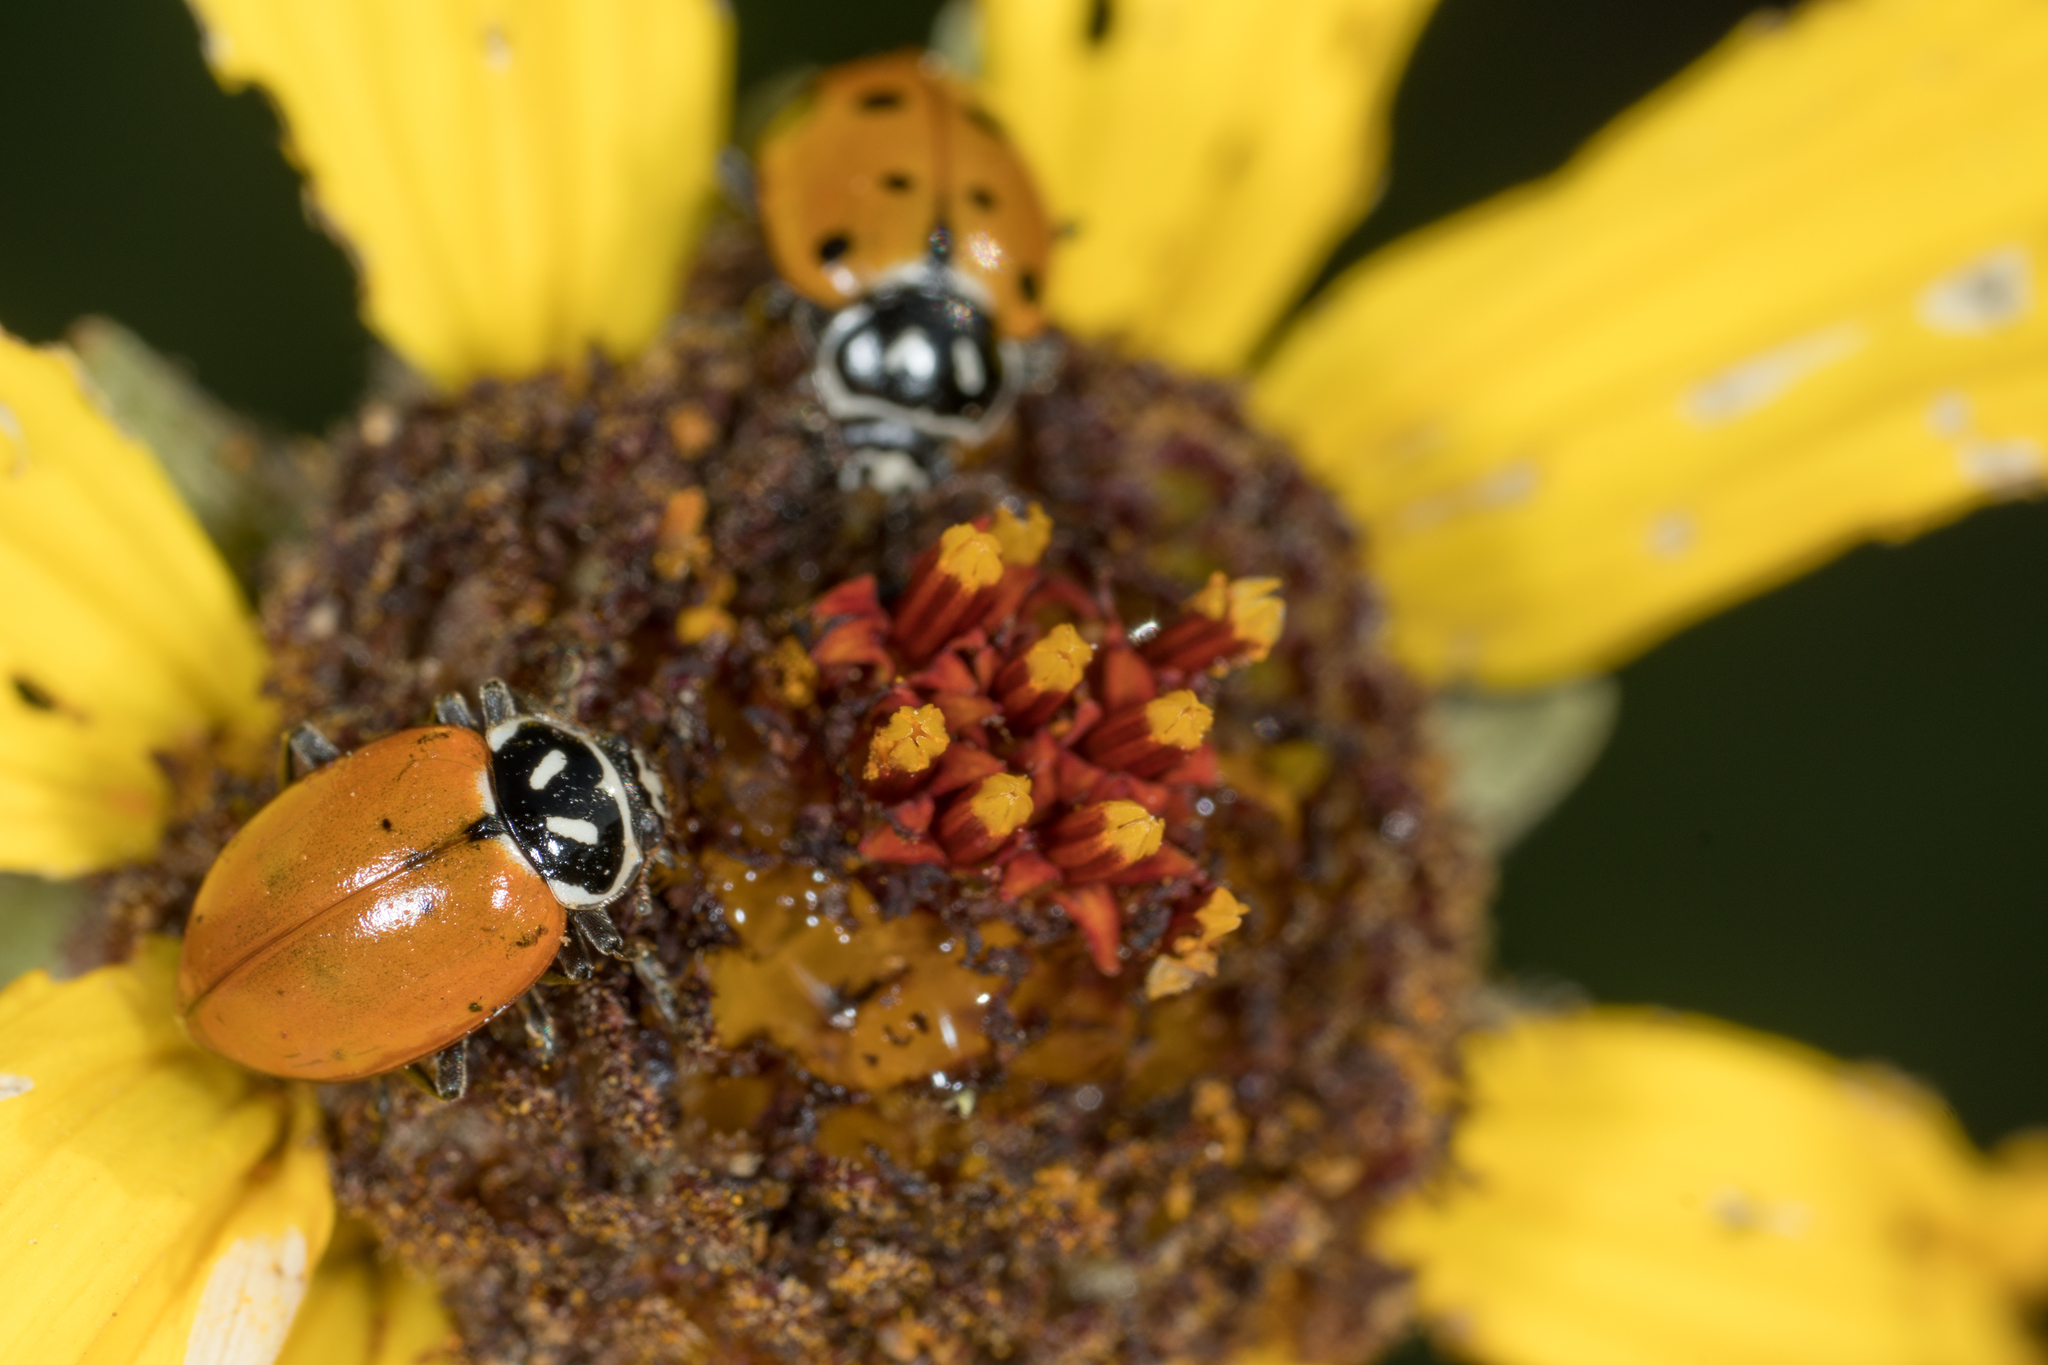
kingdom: Animalia
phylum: Arthropoda
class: Insecta
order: Coleoptera
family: Coccinellidae
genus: Hippodamia
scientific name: Hippodamia convergens
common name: Convergent lady beetle
